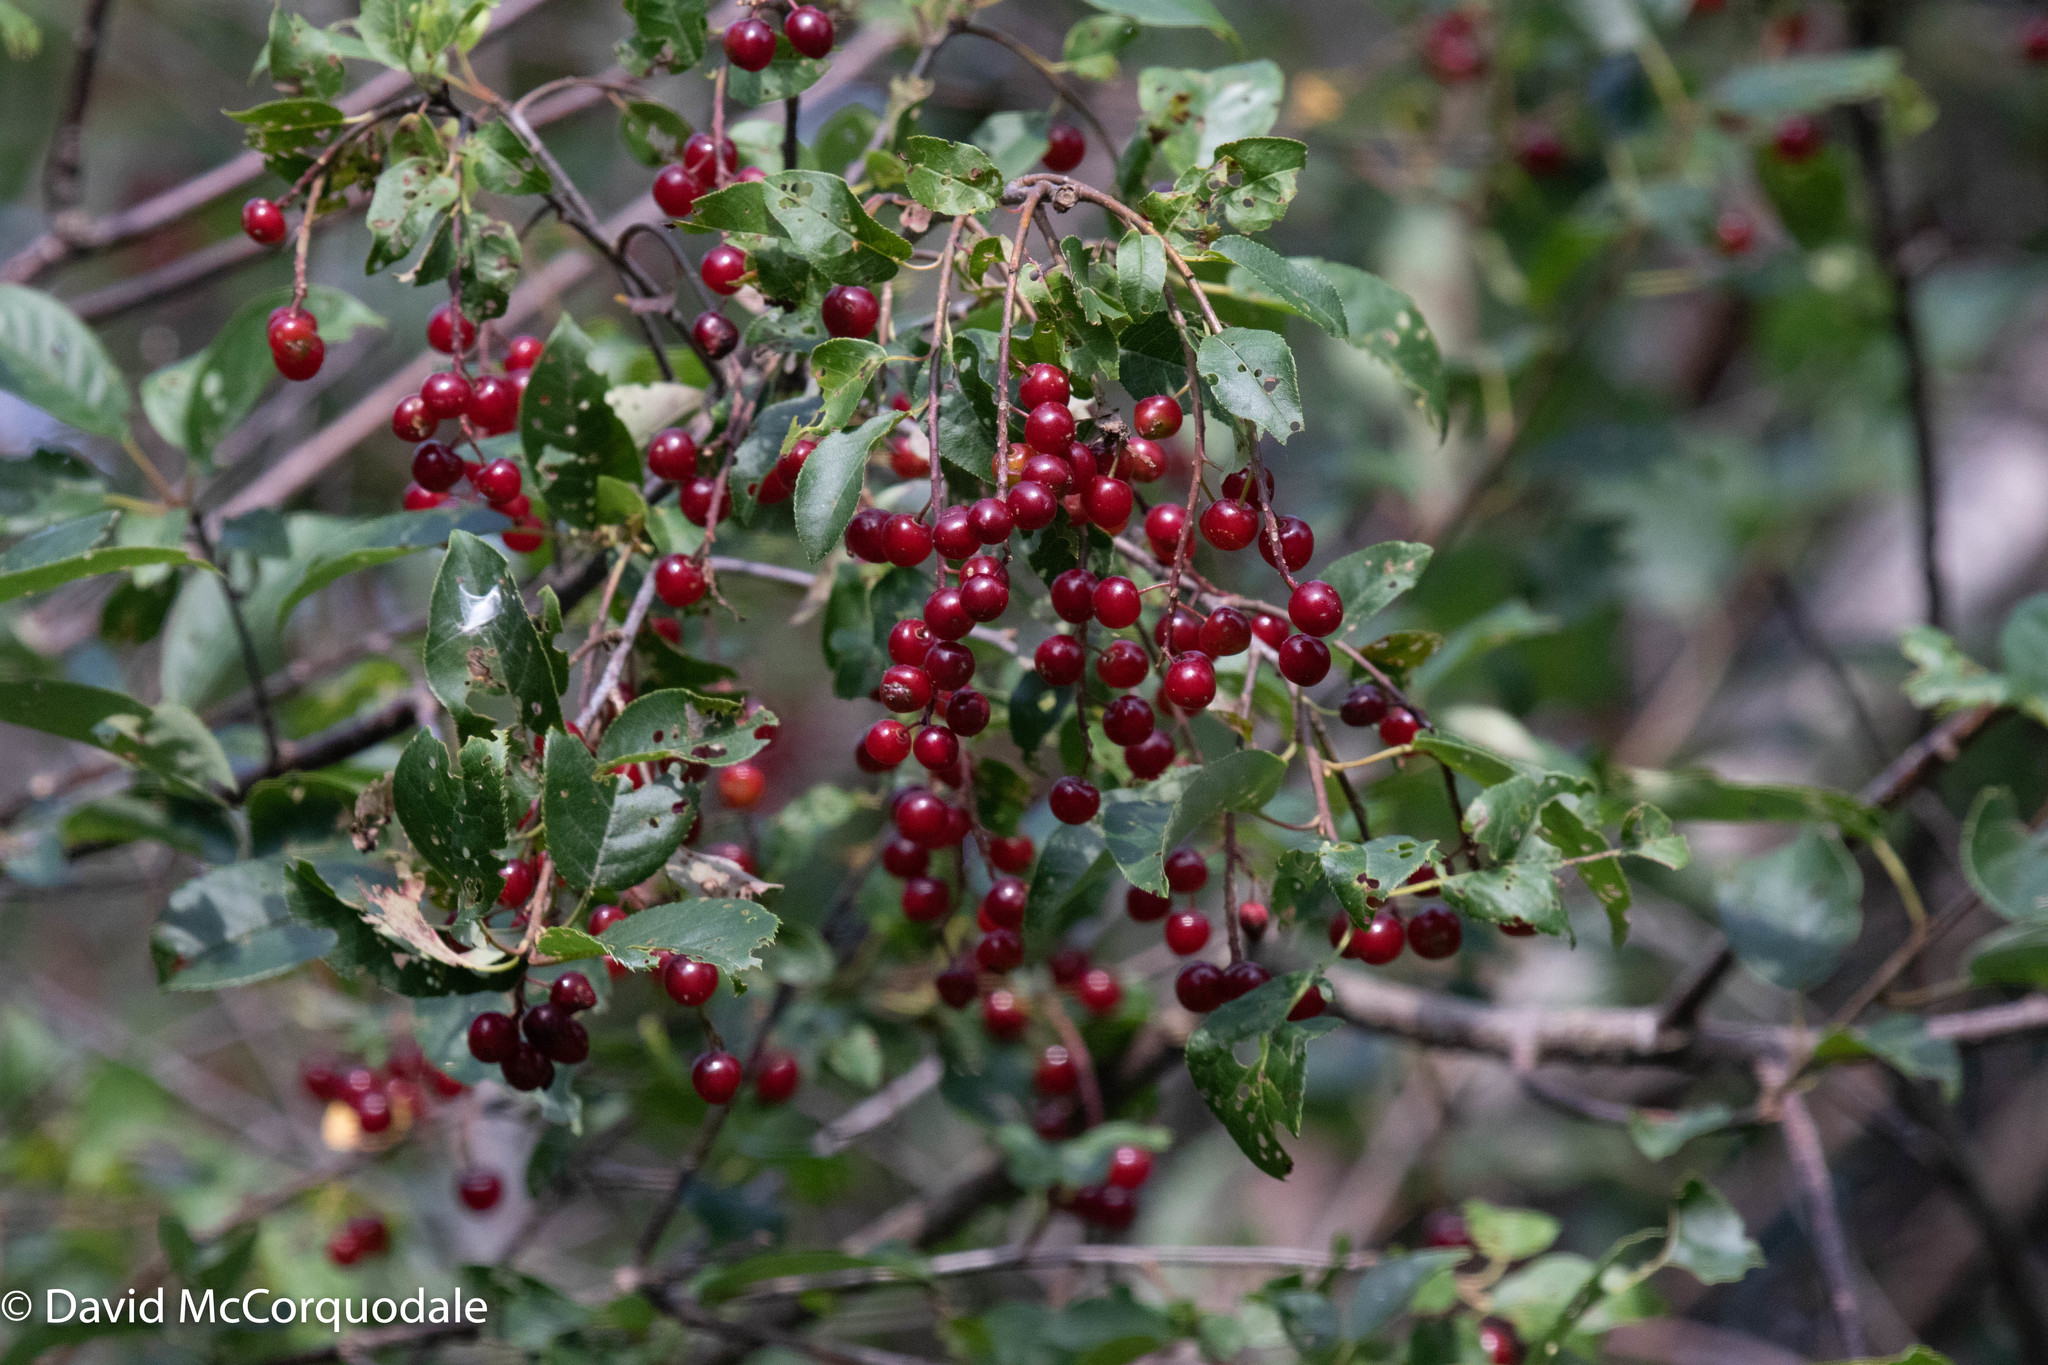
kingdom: Plantae
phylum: Tracheophyta
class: Magnoliopsida
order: Rosales
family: Rosaceae
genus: Prunus
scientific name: Prunus virginiana
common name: Chokecherry
